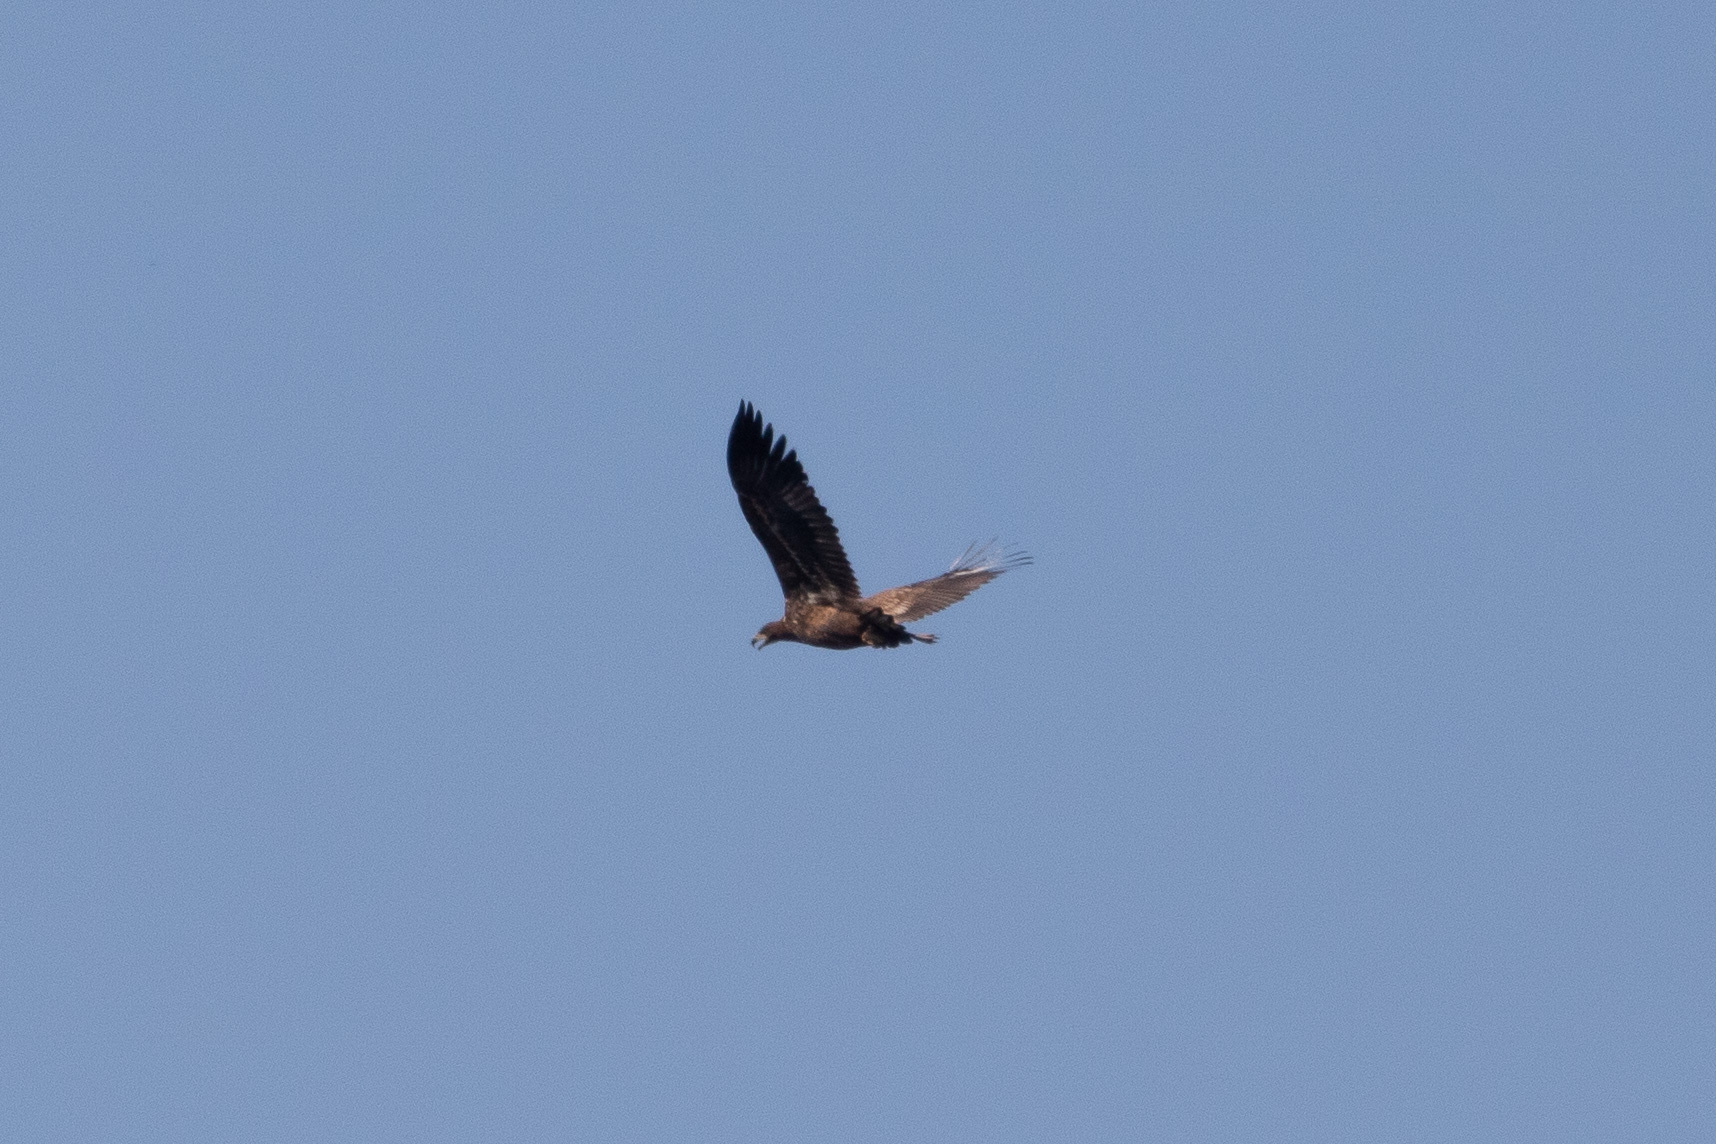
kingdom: Animalia
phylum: Chordata
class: Aves
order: Accipitriformes
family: Accipitridae
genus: Haliaeetus
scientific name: Haliaeetus albicilla
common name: White-tailed eagle
